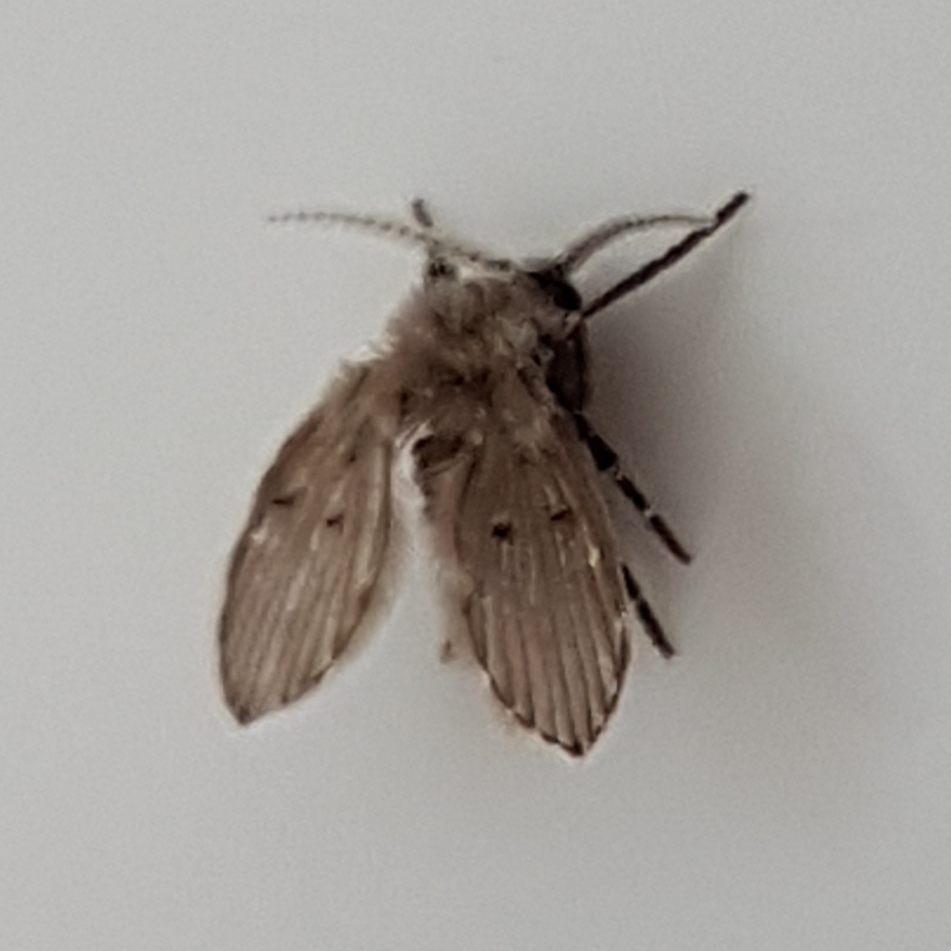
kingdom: Animalia
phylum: Arthropoda
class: Insecta
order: Diptera
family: Psychodidae
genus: Clogmia
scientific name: Clogmia albipunctatus
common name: White-spotted moth fly
